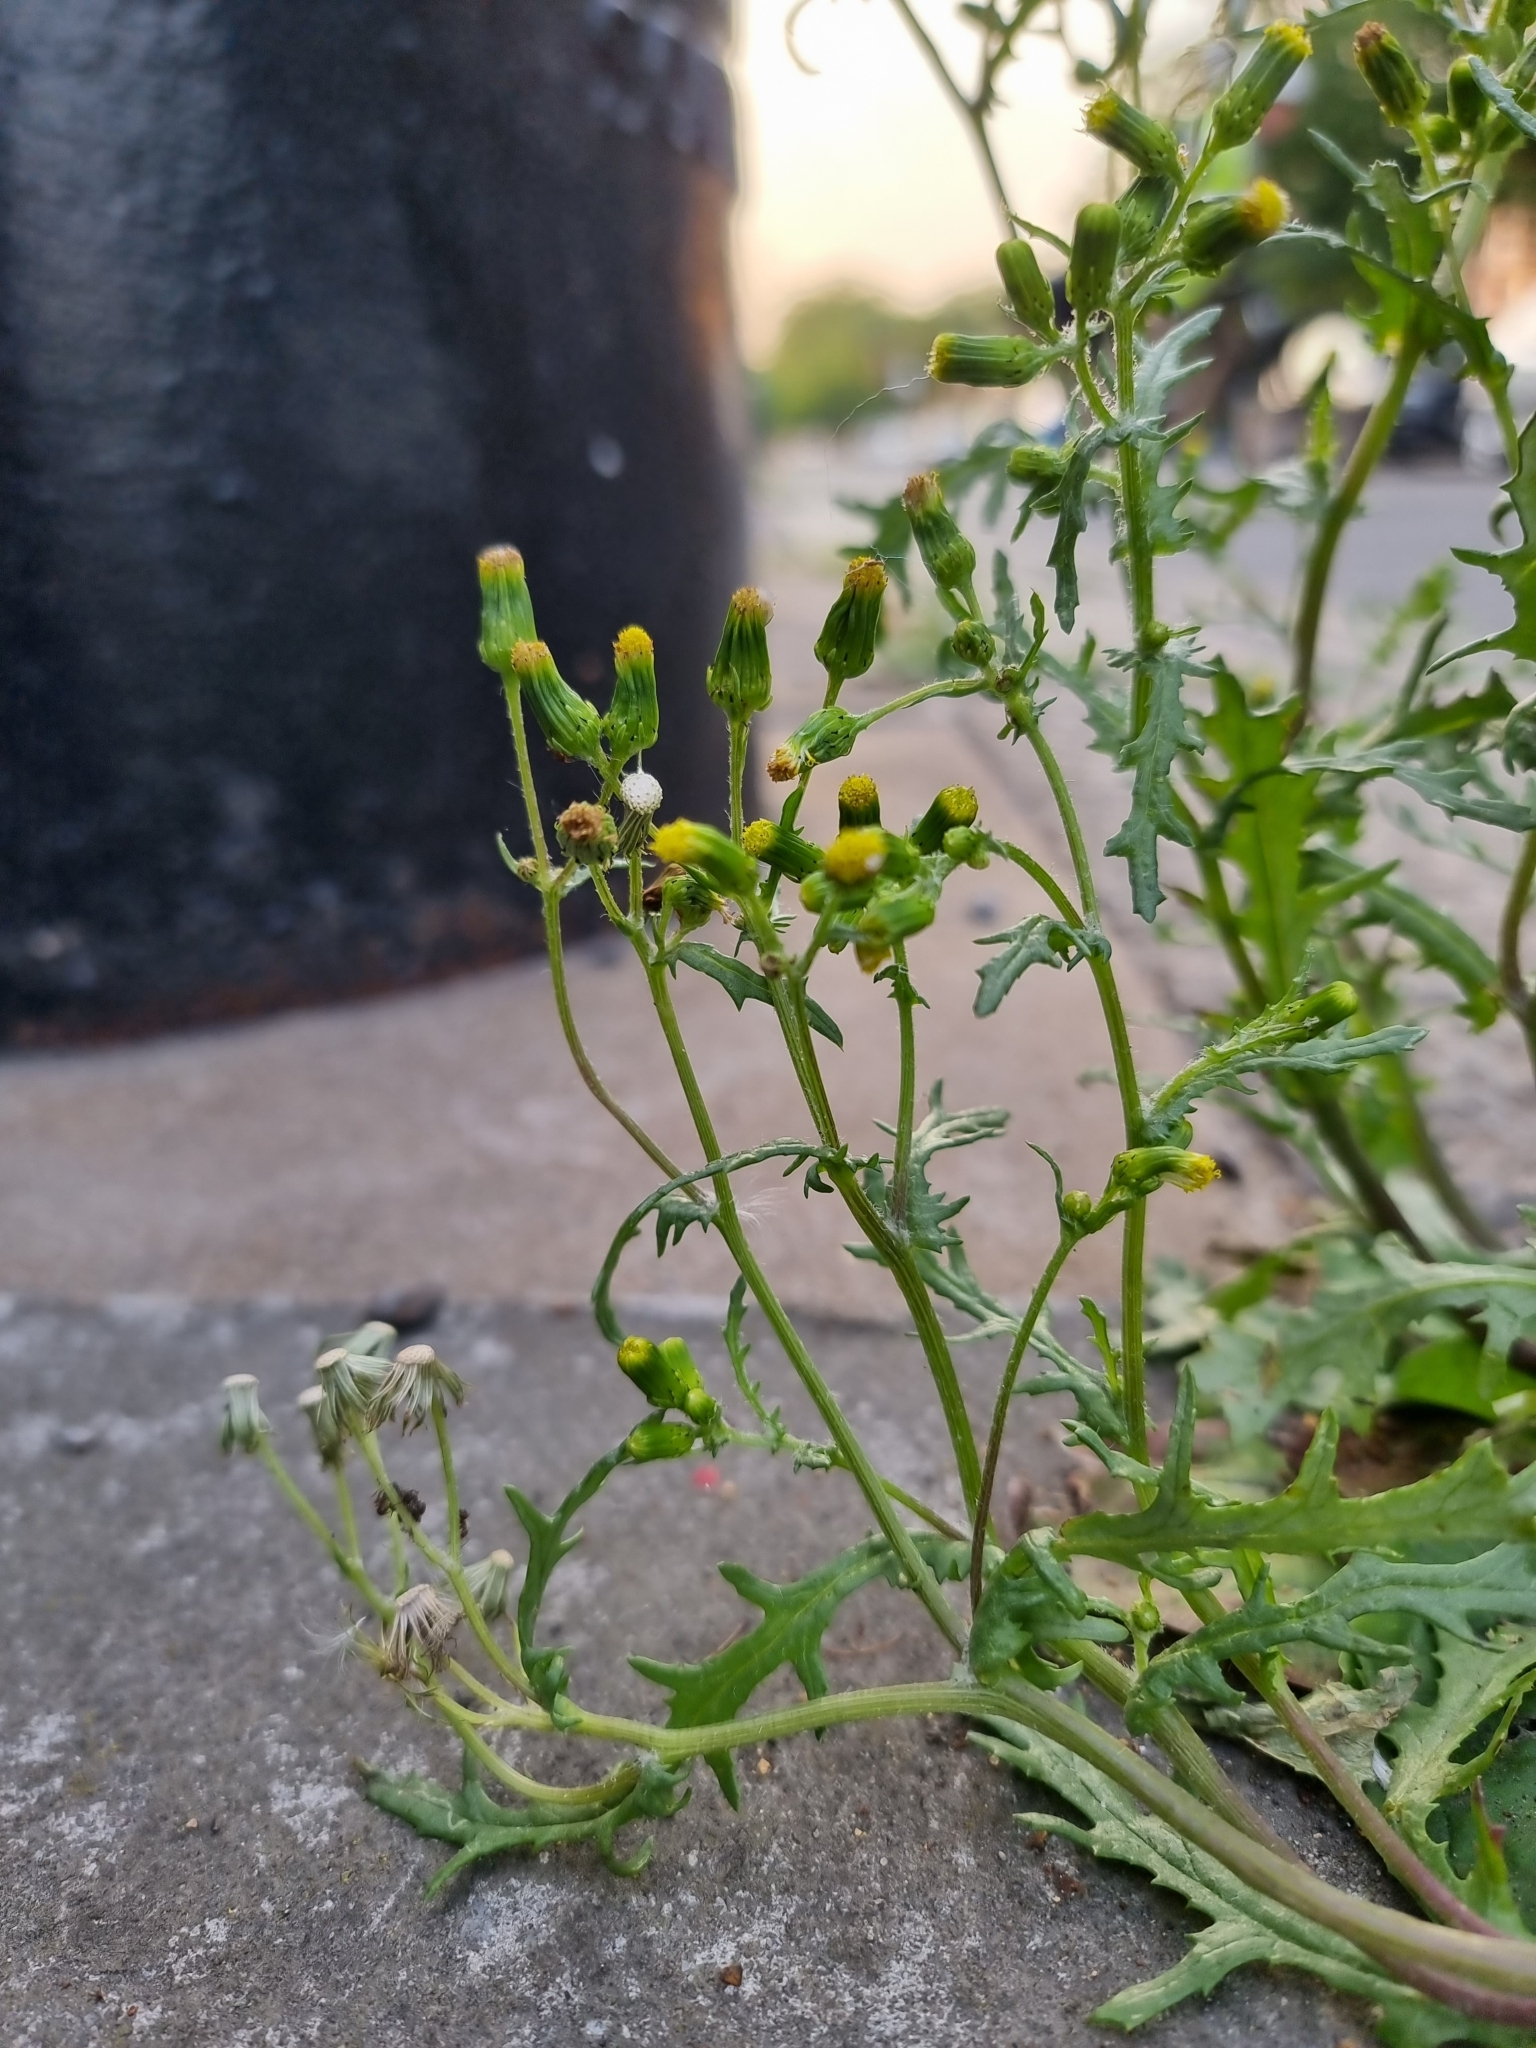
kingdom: Plantae
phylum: Tracheophyta
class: Magnoliopsida
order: Asterales
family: Asteraceae
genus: Senecio
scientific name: Senecio vulgaris
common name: Old-man-in-the-spring
